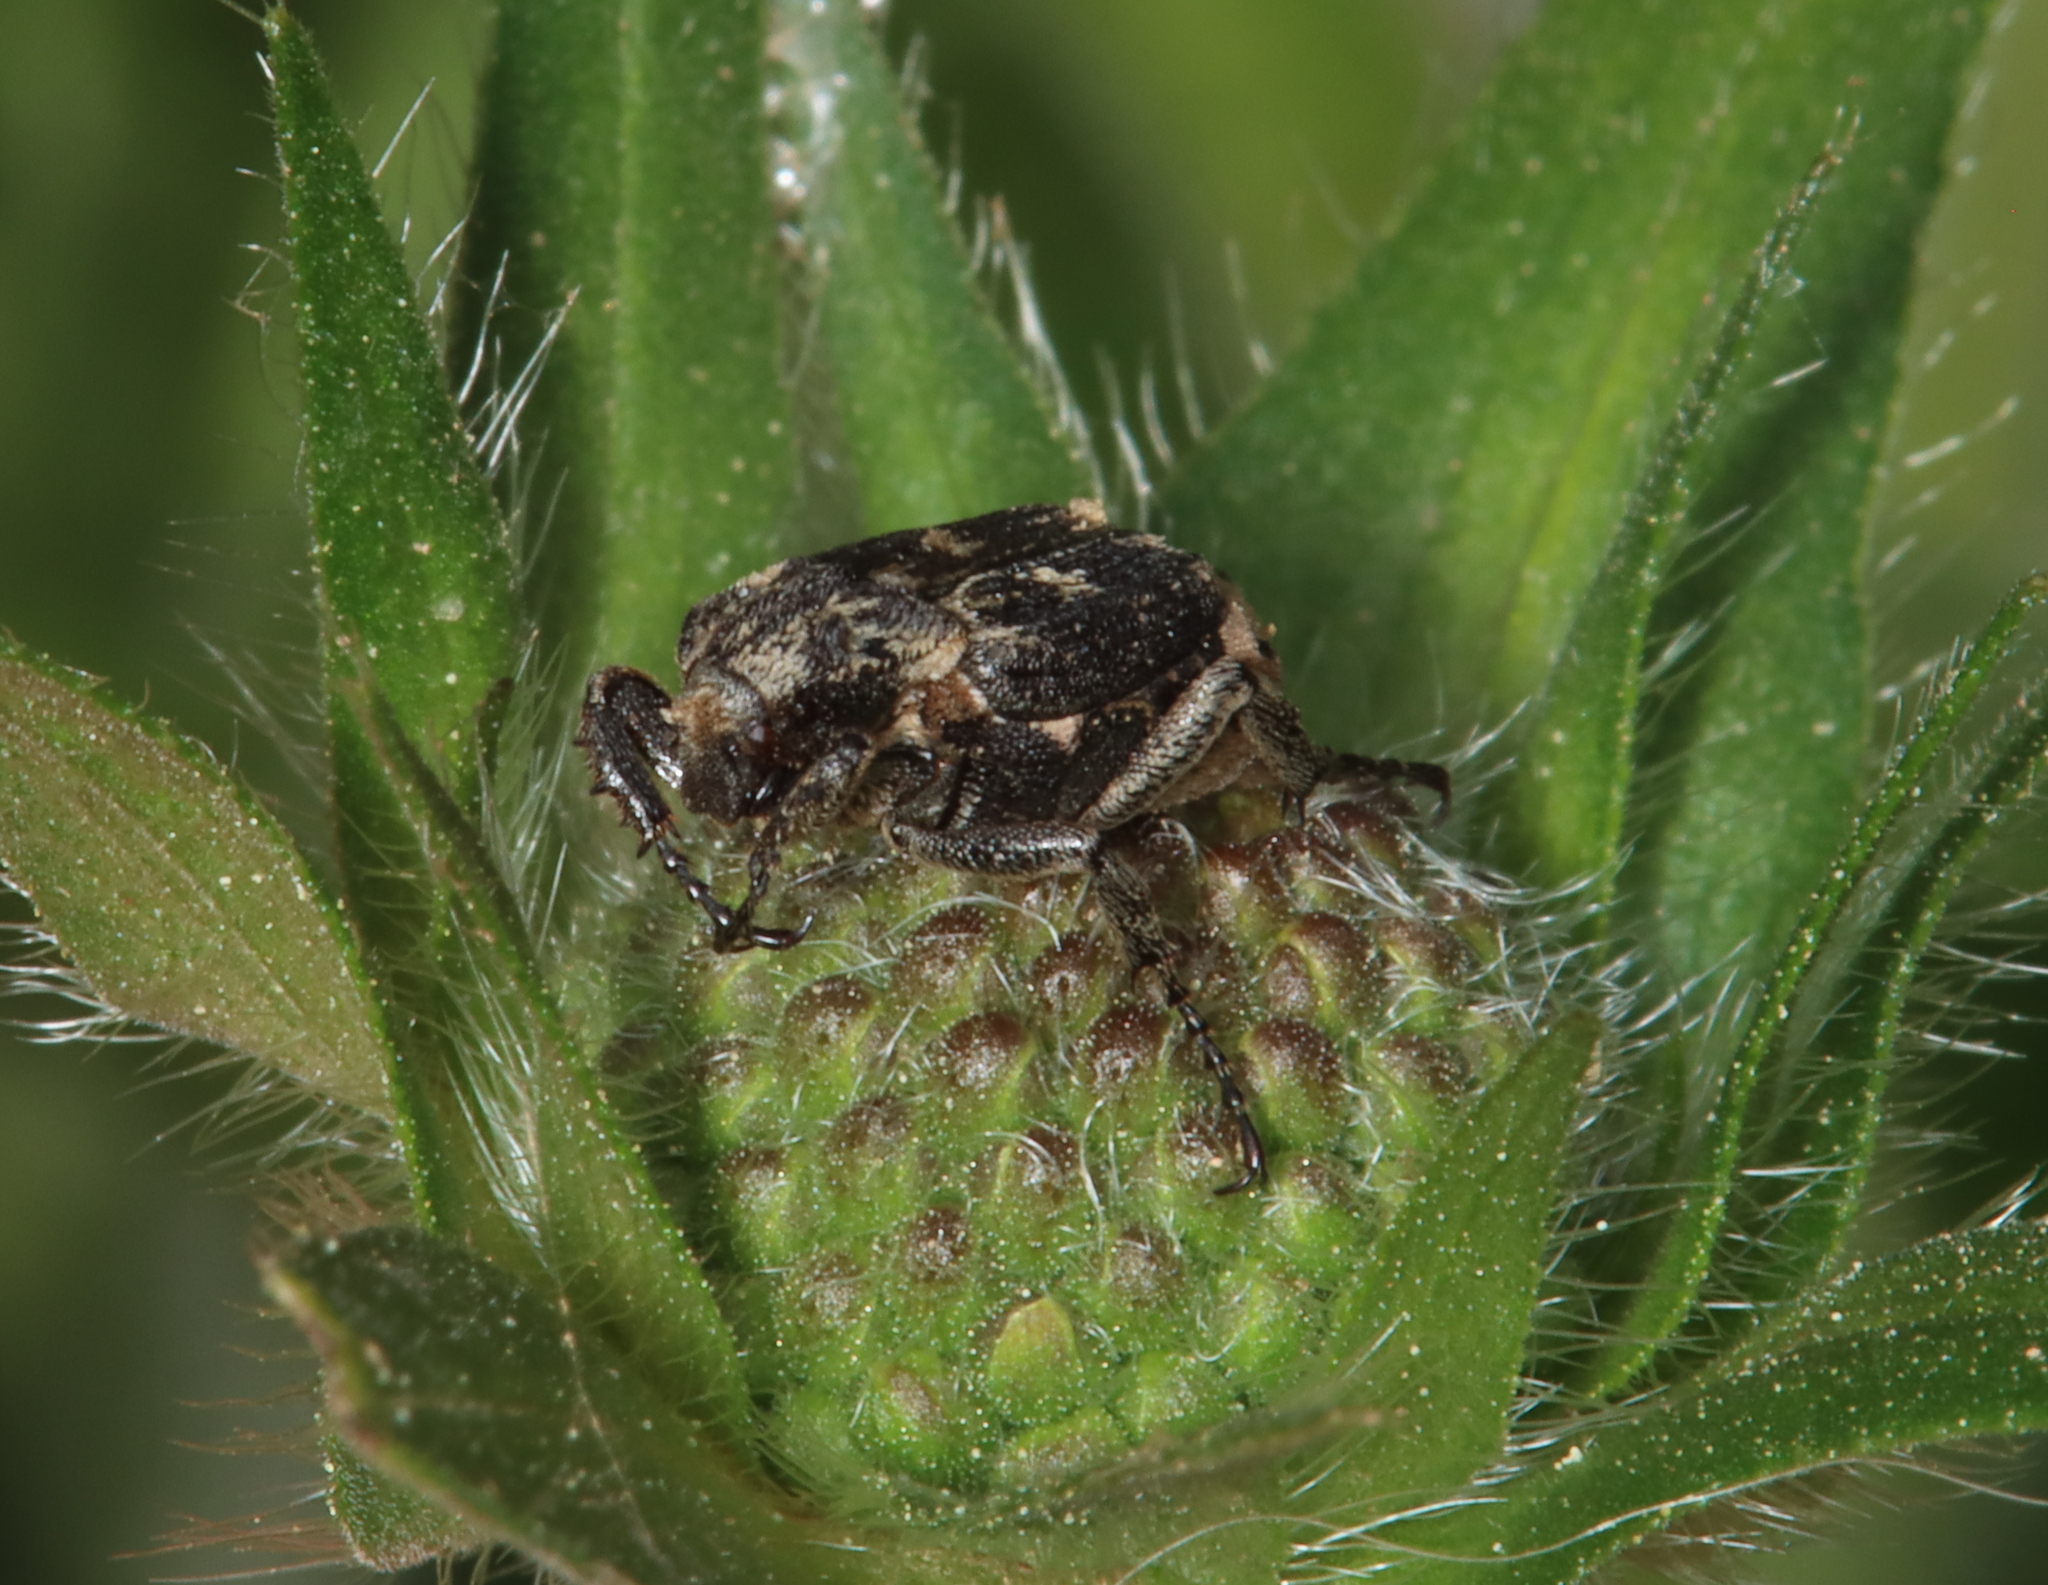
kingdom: Animalia
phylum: Arthropoda
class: Insecta
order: Coleoptera
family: Scarabaeidae
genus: Valgus
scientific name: Valgus hemipterus
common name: Bug flower chafer
